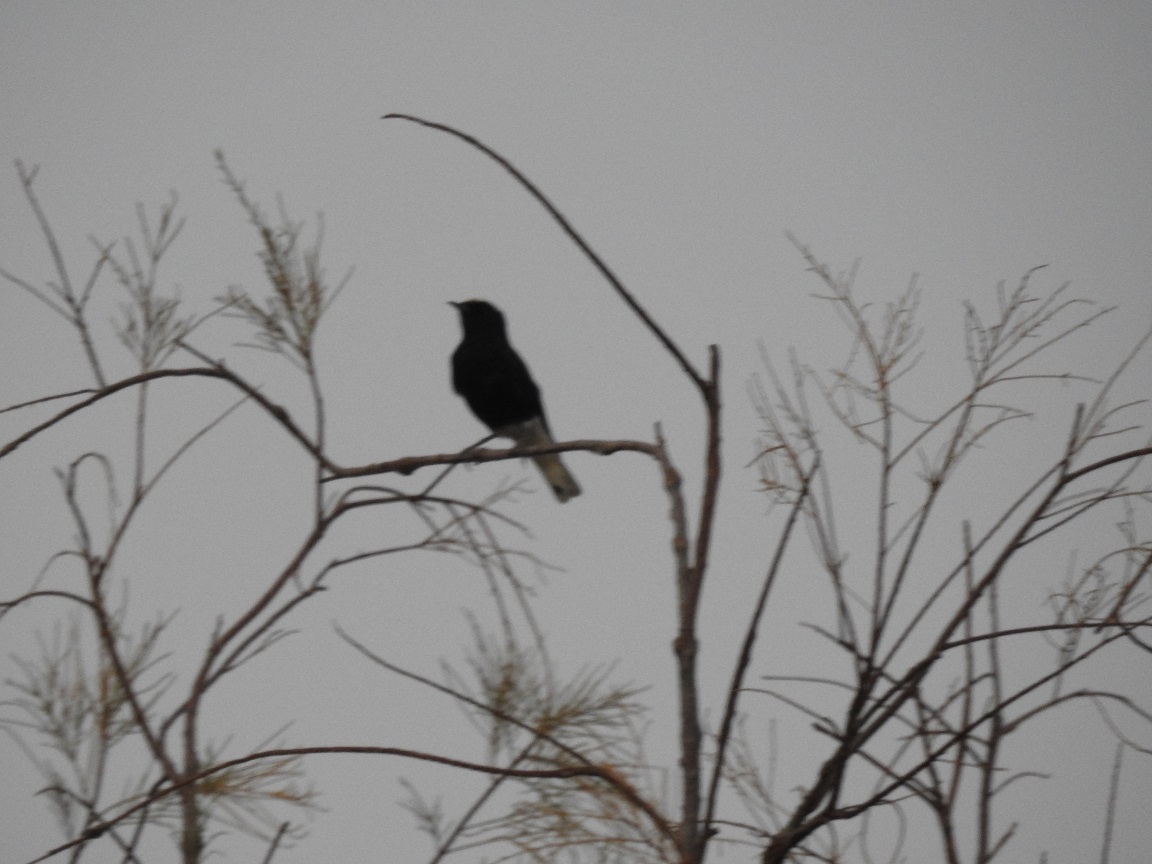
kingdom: Animalia
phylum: Chordata
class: Aves
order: Passeriformes
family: Muscicapidae
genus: Oenanthe
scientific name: Oenanthe leucopyga
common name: White-crowned wheatear
